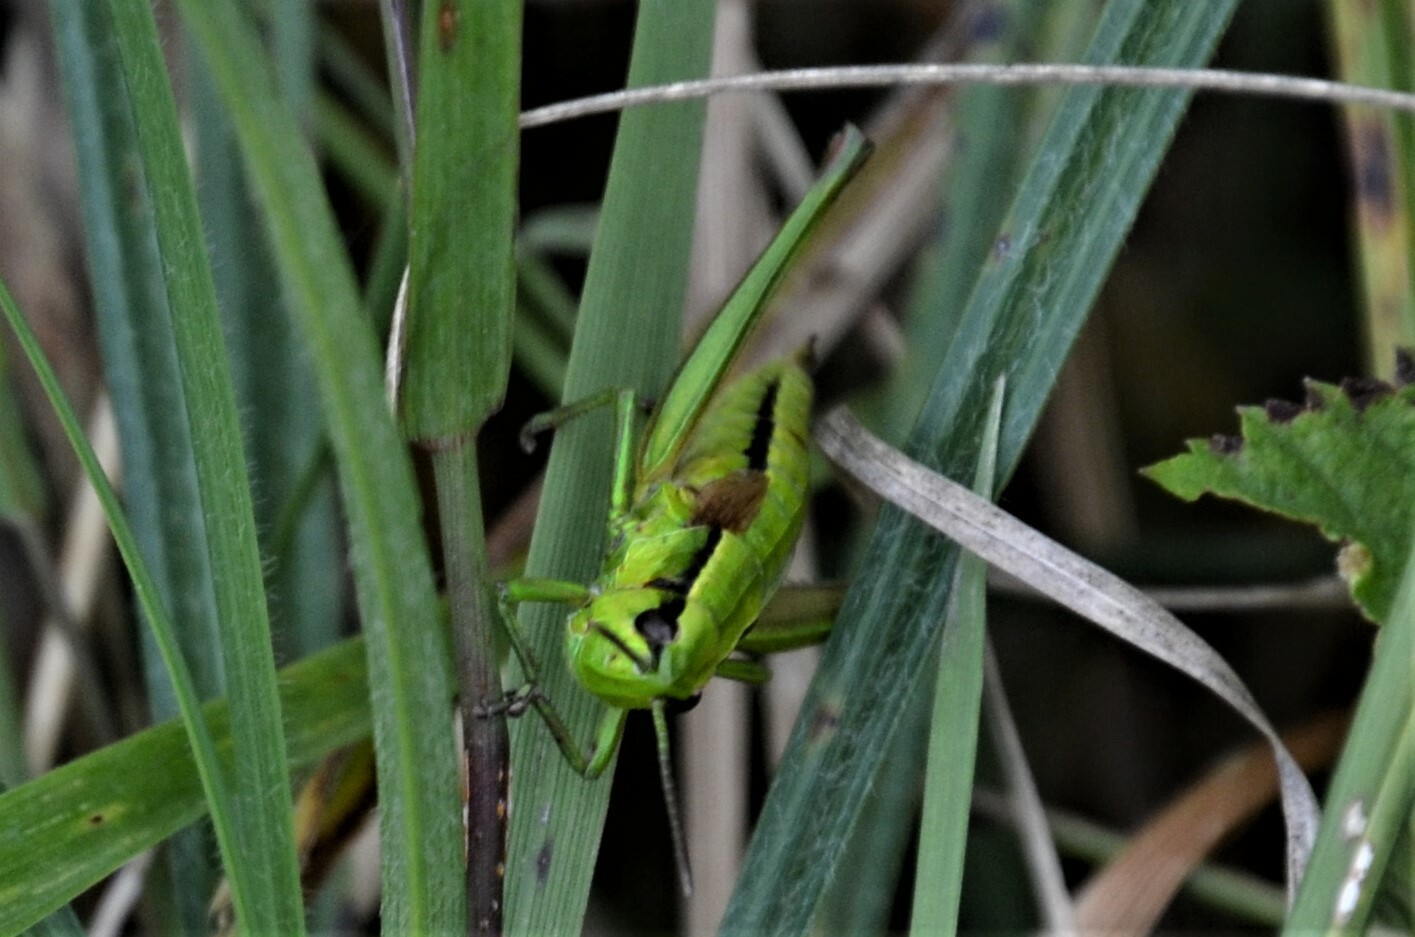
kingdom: Animalia
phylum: Arthropoda
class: Insecta
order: Orthoptera
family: Acrididae
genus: Euthystira
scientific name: Euthystira brachyptera
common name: Small gold grasshopper
